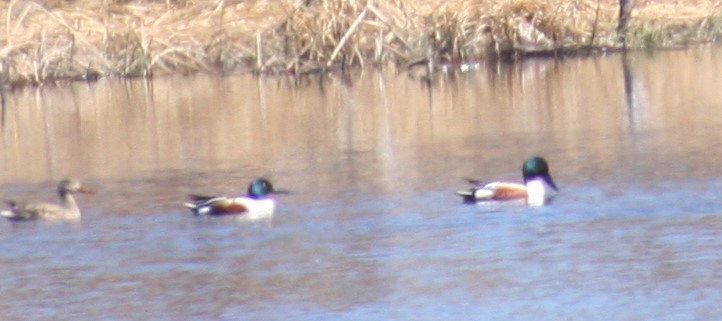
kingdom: Animalia
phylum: Chordata
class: Aves
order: Anseriformes
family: Anatidae
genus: Spatula
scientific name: Spatula clypeata
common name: Northern shoveler
